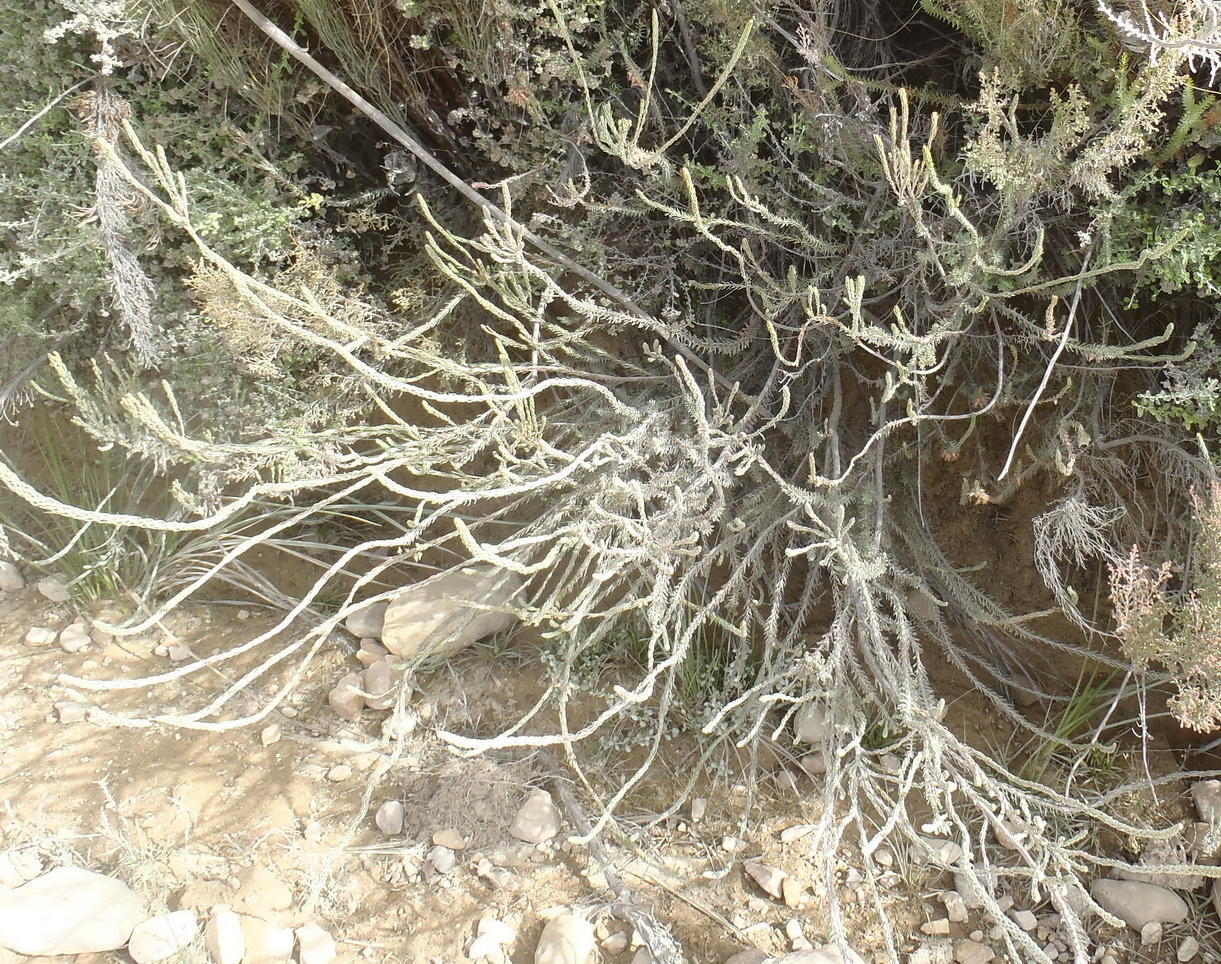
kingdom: Plantae
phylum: Tracheophyta
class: Magnoliopsida
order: Ericales
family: Ericaceae
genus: Erica
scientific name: Erica albens
